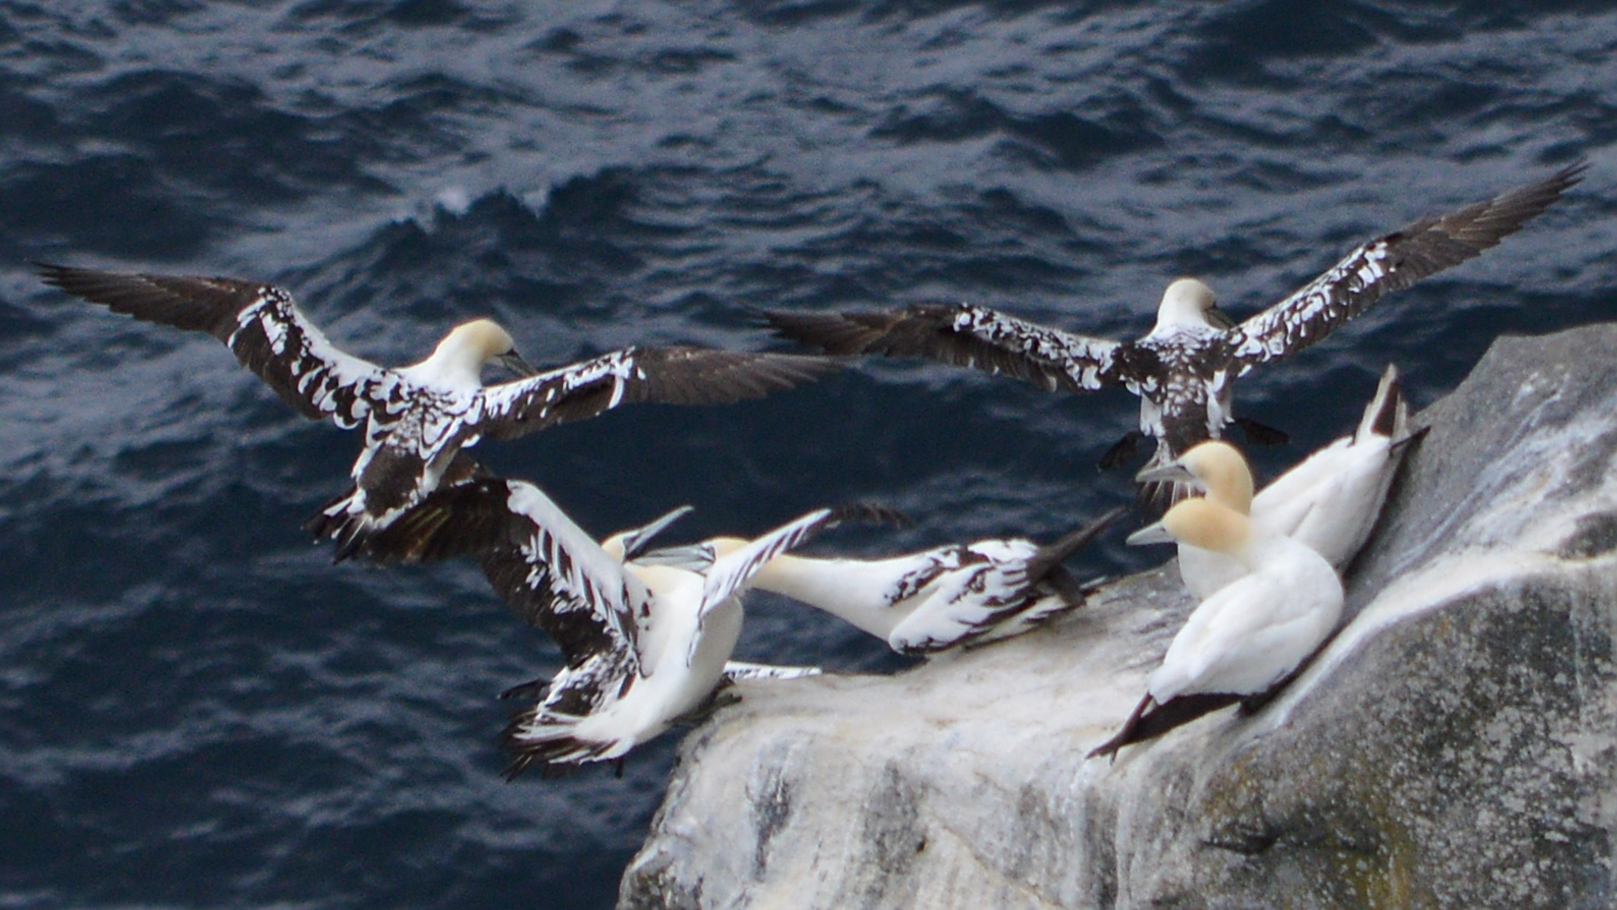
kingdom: Animalia
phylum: Chordata
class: Aves
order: Suliformes
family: Sulidae
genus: Morus
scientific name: Morus bassanus
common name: Northern gannet
